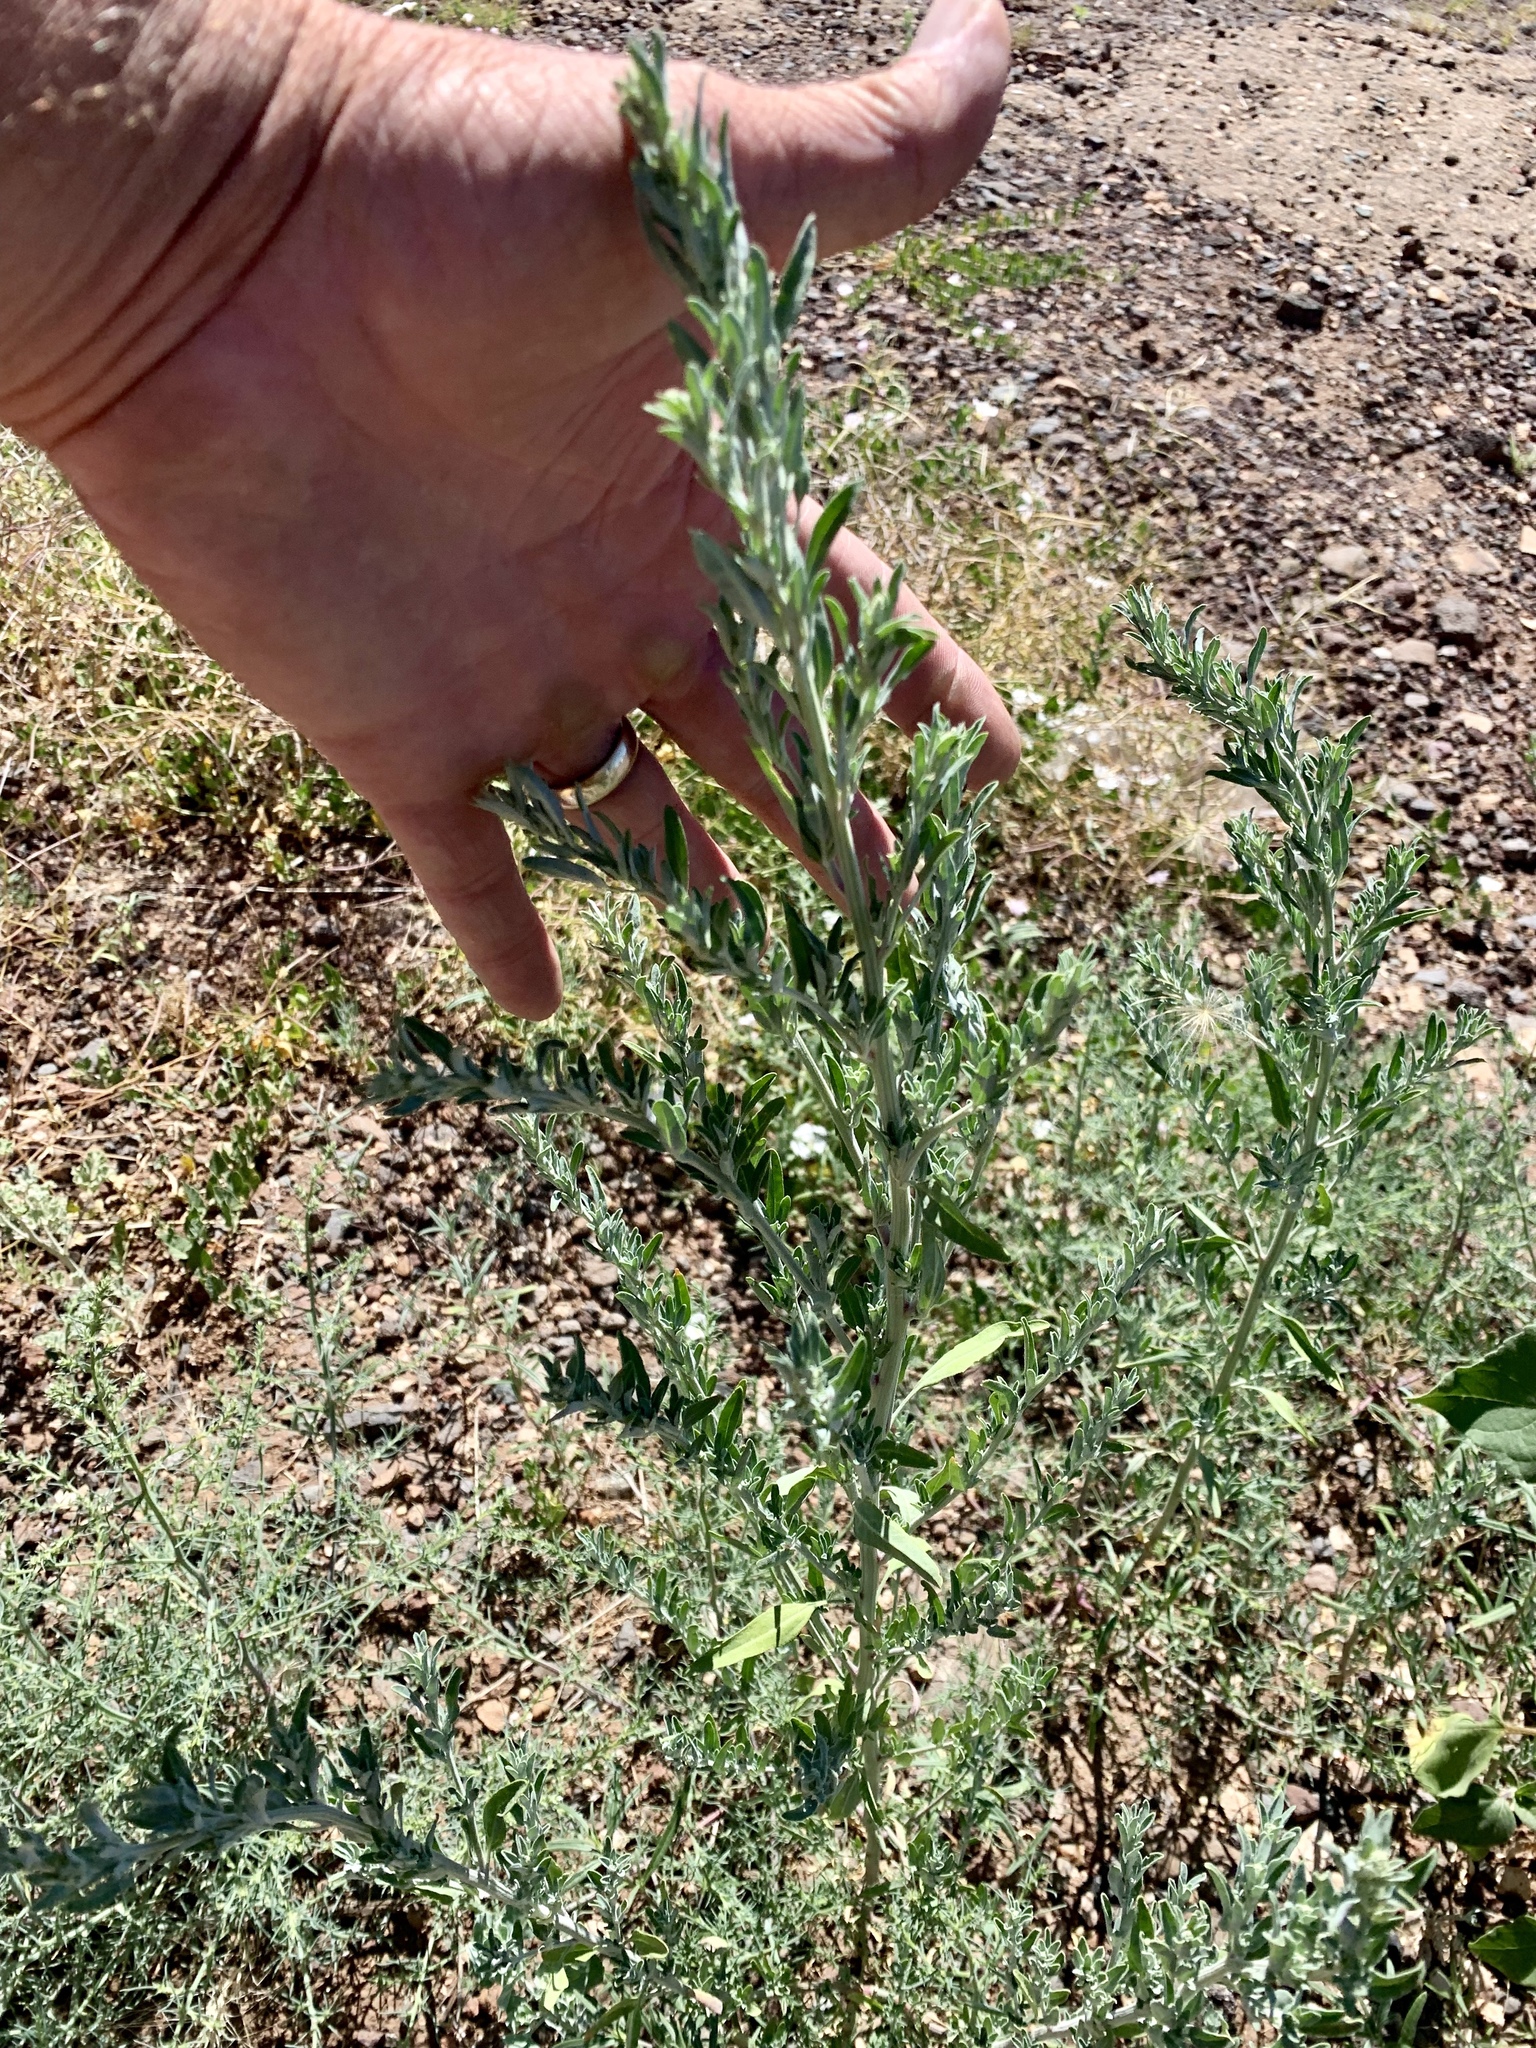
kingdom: Plantae
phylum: Tracheophyta
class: Magnoliopsida
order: Caryophyllales
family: Amaranthaceae
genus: Amaranthus
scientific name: Amaranthus albus
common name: White pigweed
